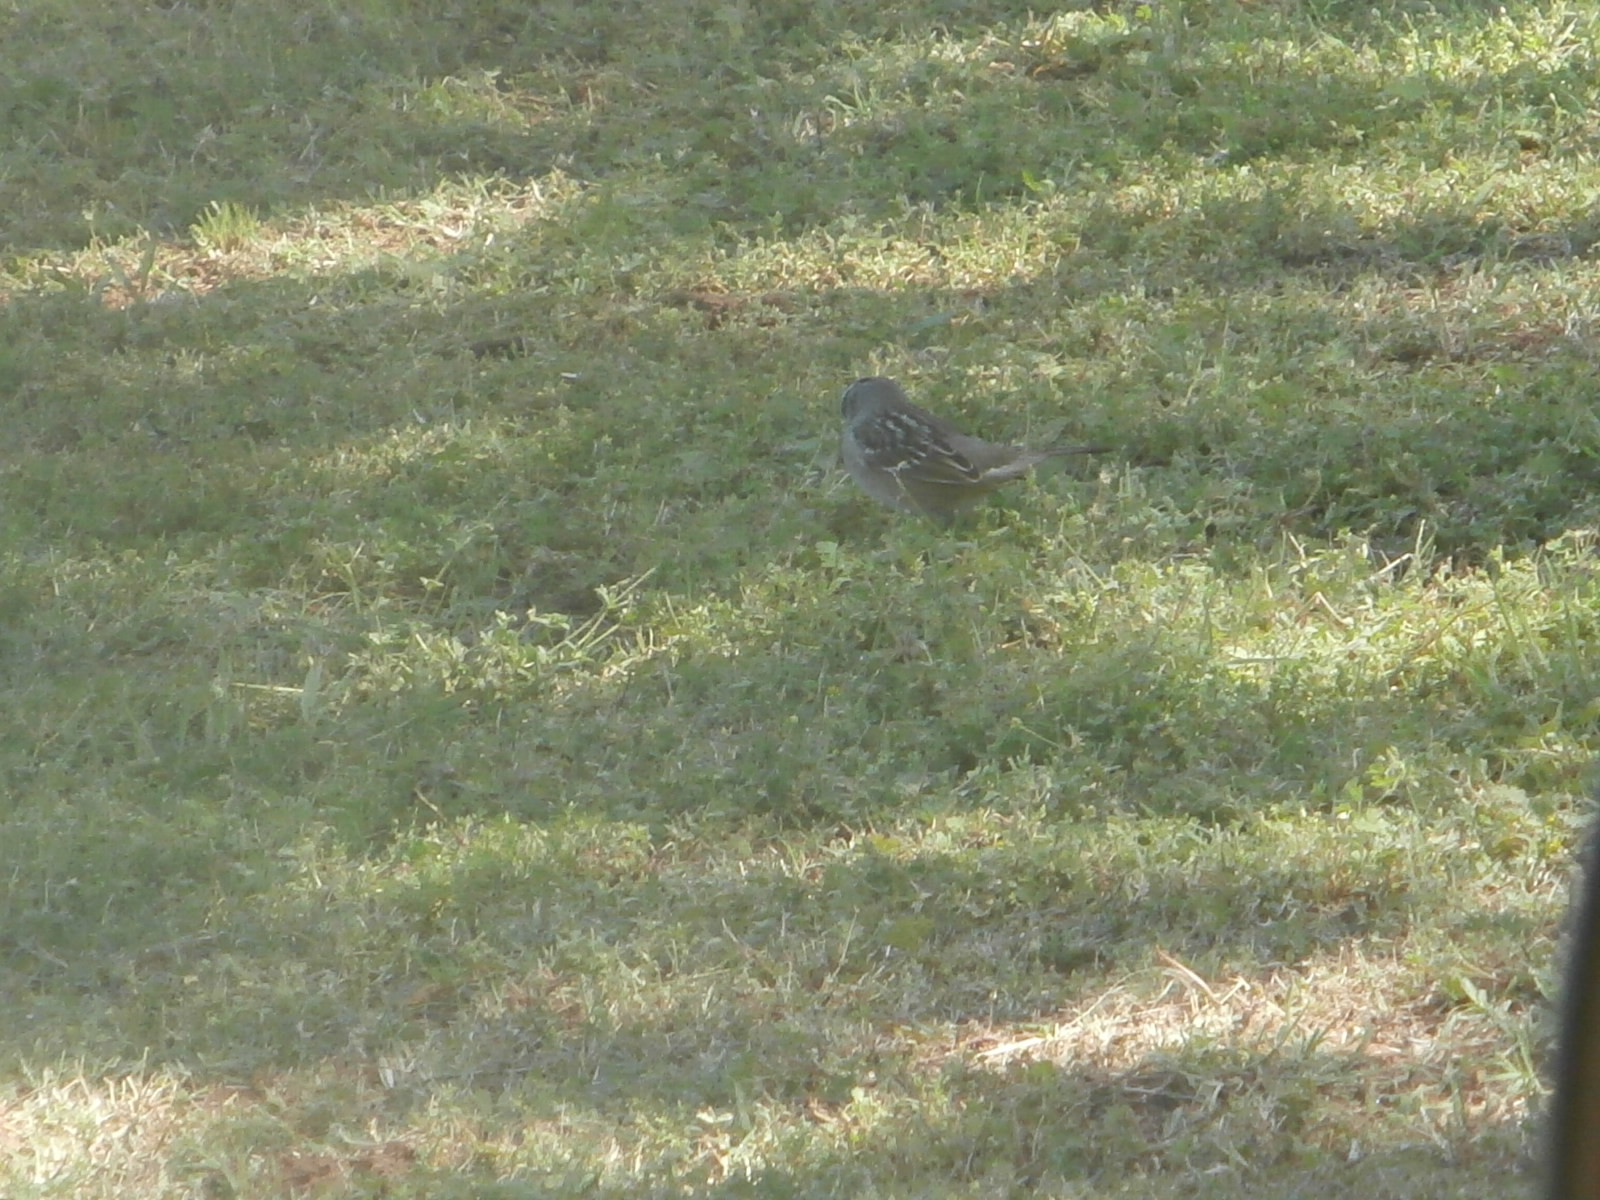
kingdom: Animalia
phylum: Chordata
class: Aves
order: Passeriformes
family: Passerellidae
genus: Zonotrichia
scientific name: Zonotrichia leucophrys
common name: White-crowned sparrow
